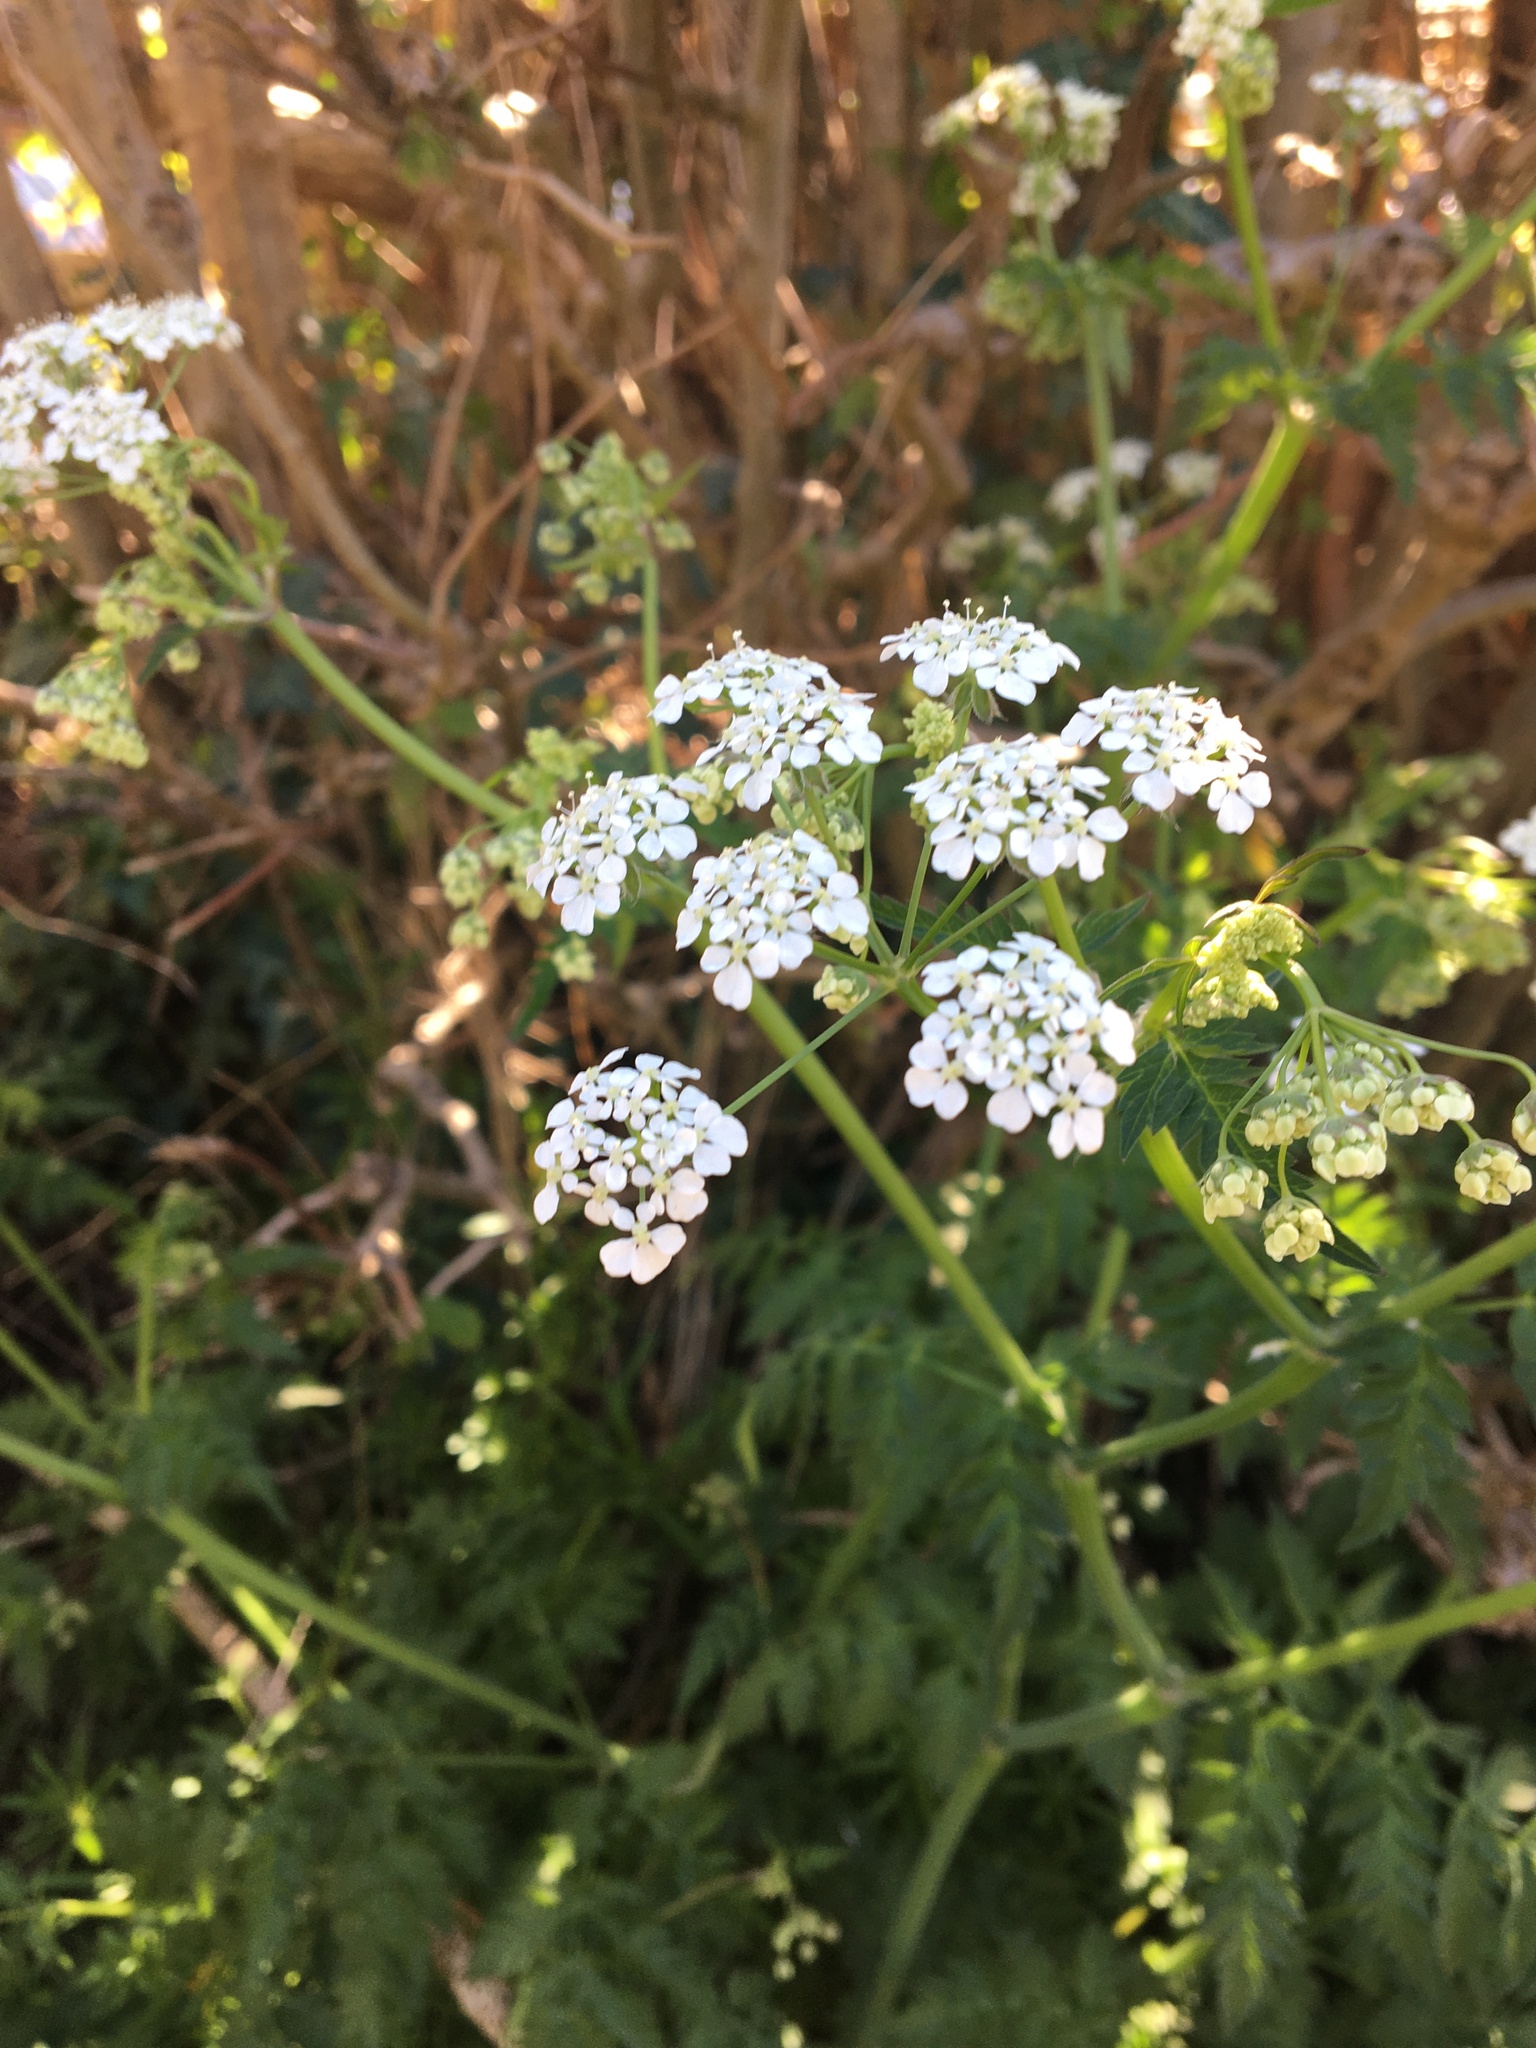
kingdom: Plantae
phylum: Tracheophyta
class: Magnoliopsida
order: Apiales
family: Apiaceae
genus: Anthriscus
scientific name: Anthriscus sylvestris
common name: Cow parsley
